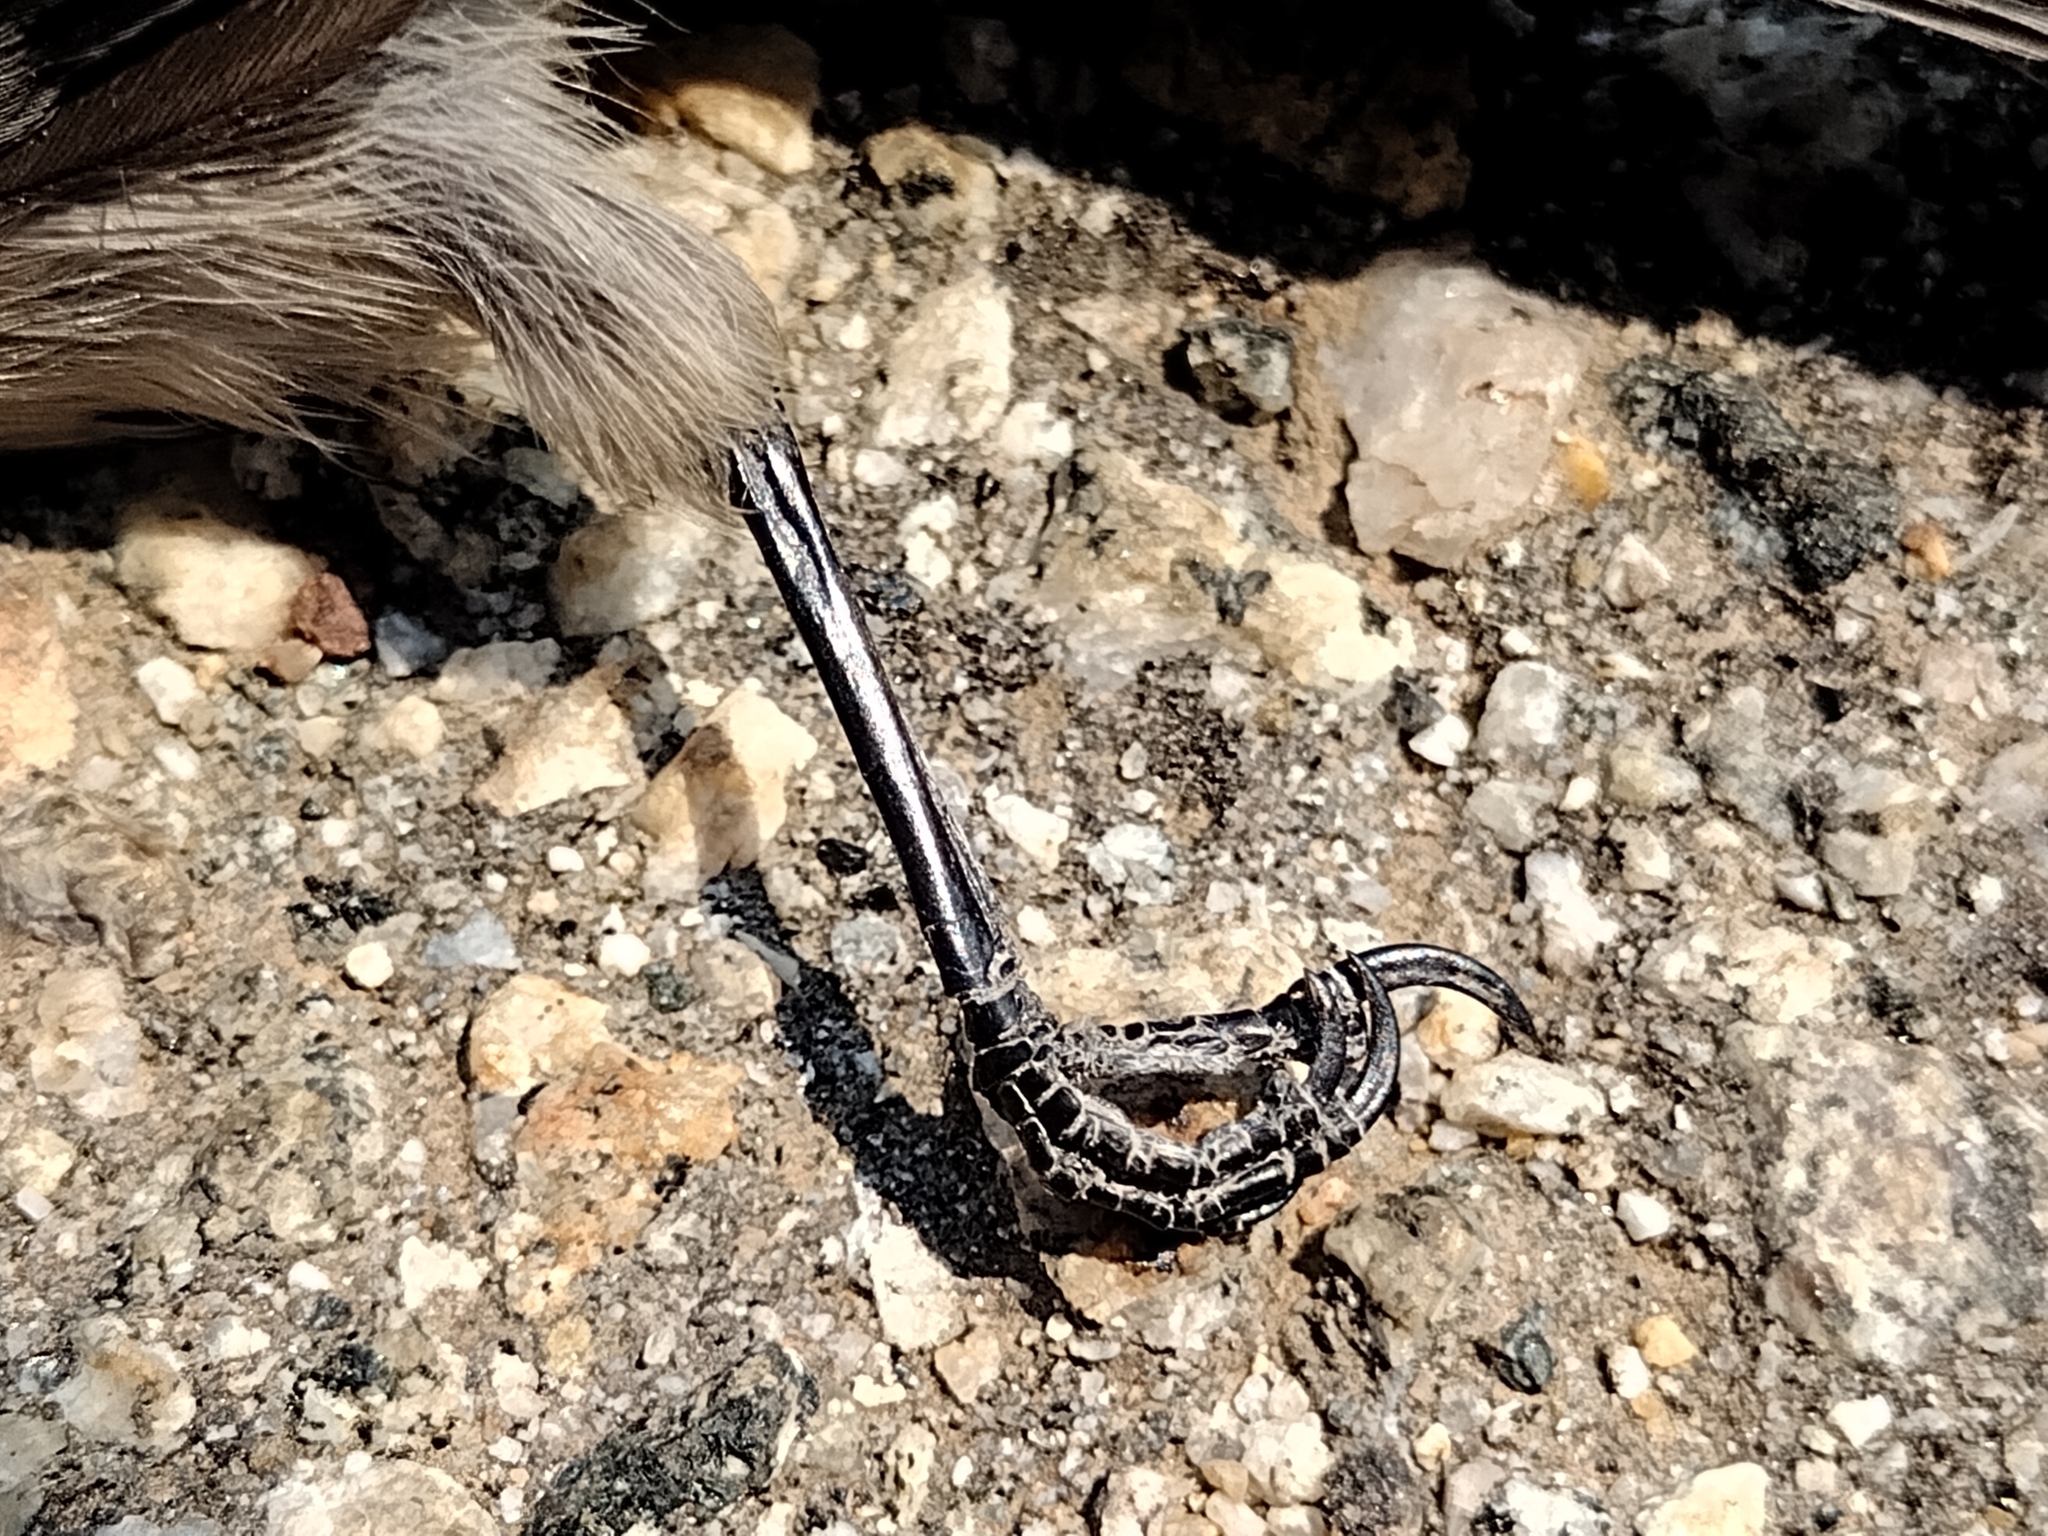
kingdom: Animalia
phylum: Chordata
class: Aves
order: Passeriformes
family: Aegithalidae
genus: Psaltriparus
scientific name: Psaltriparus minimus
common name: American bushtit
